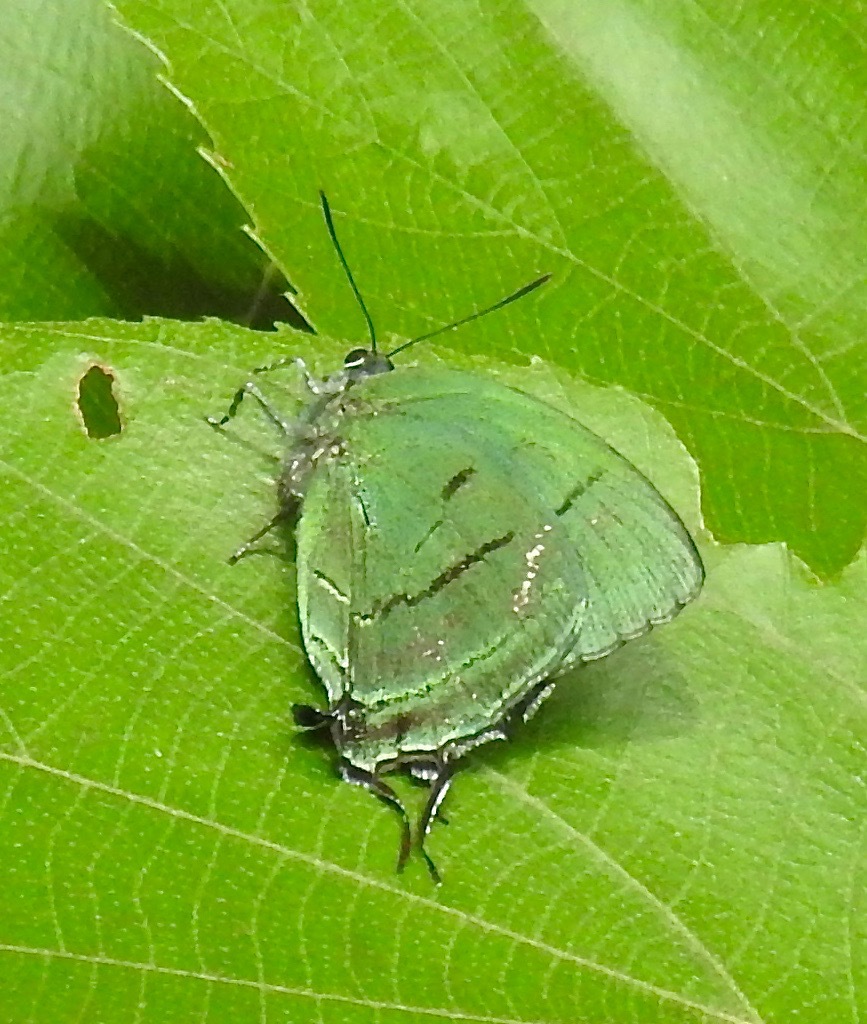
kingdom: Animalia
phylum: Arthropoda
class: Insecta
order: Lepidoptera
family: Lycaenidae
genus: Theritas
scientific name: Theritas mavors
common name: Deep-green hairstreak
